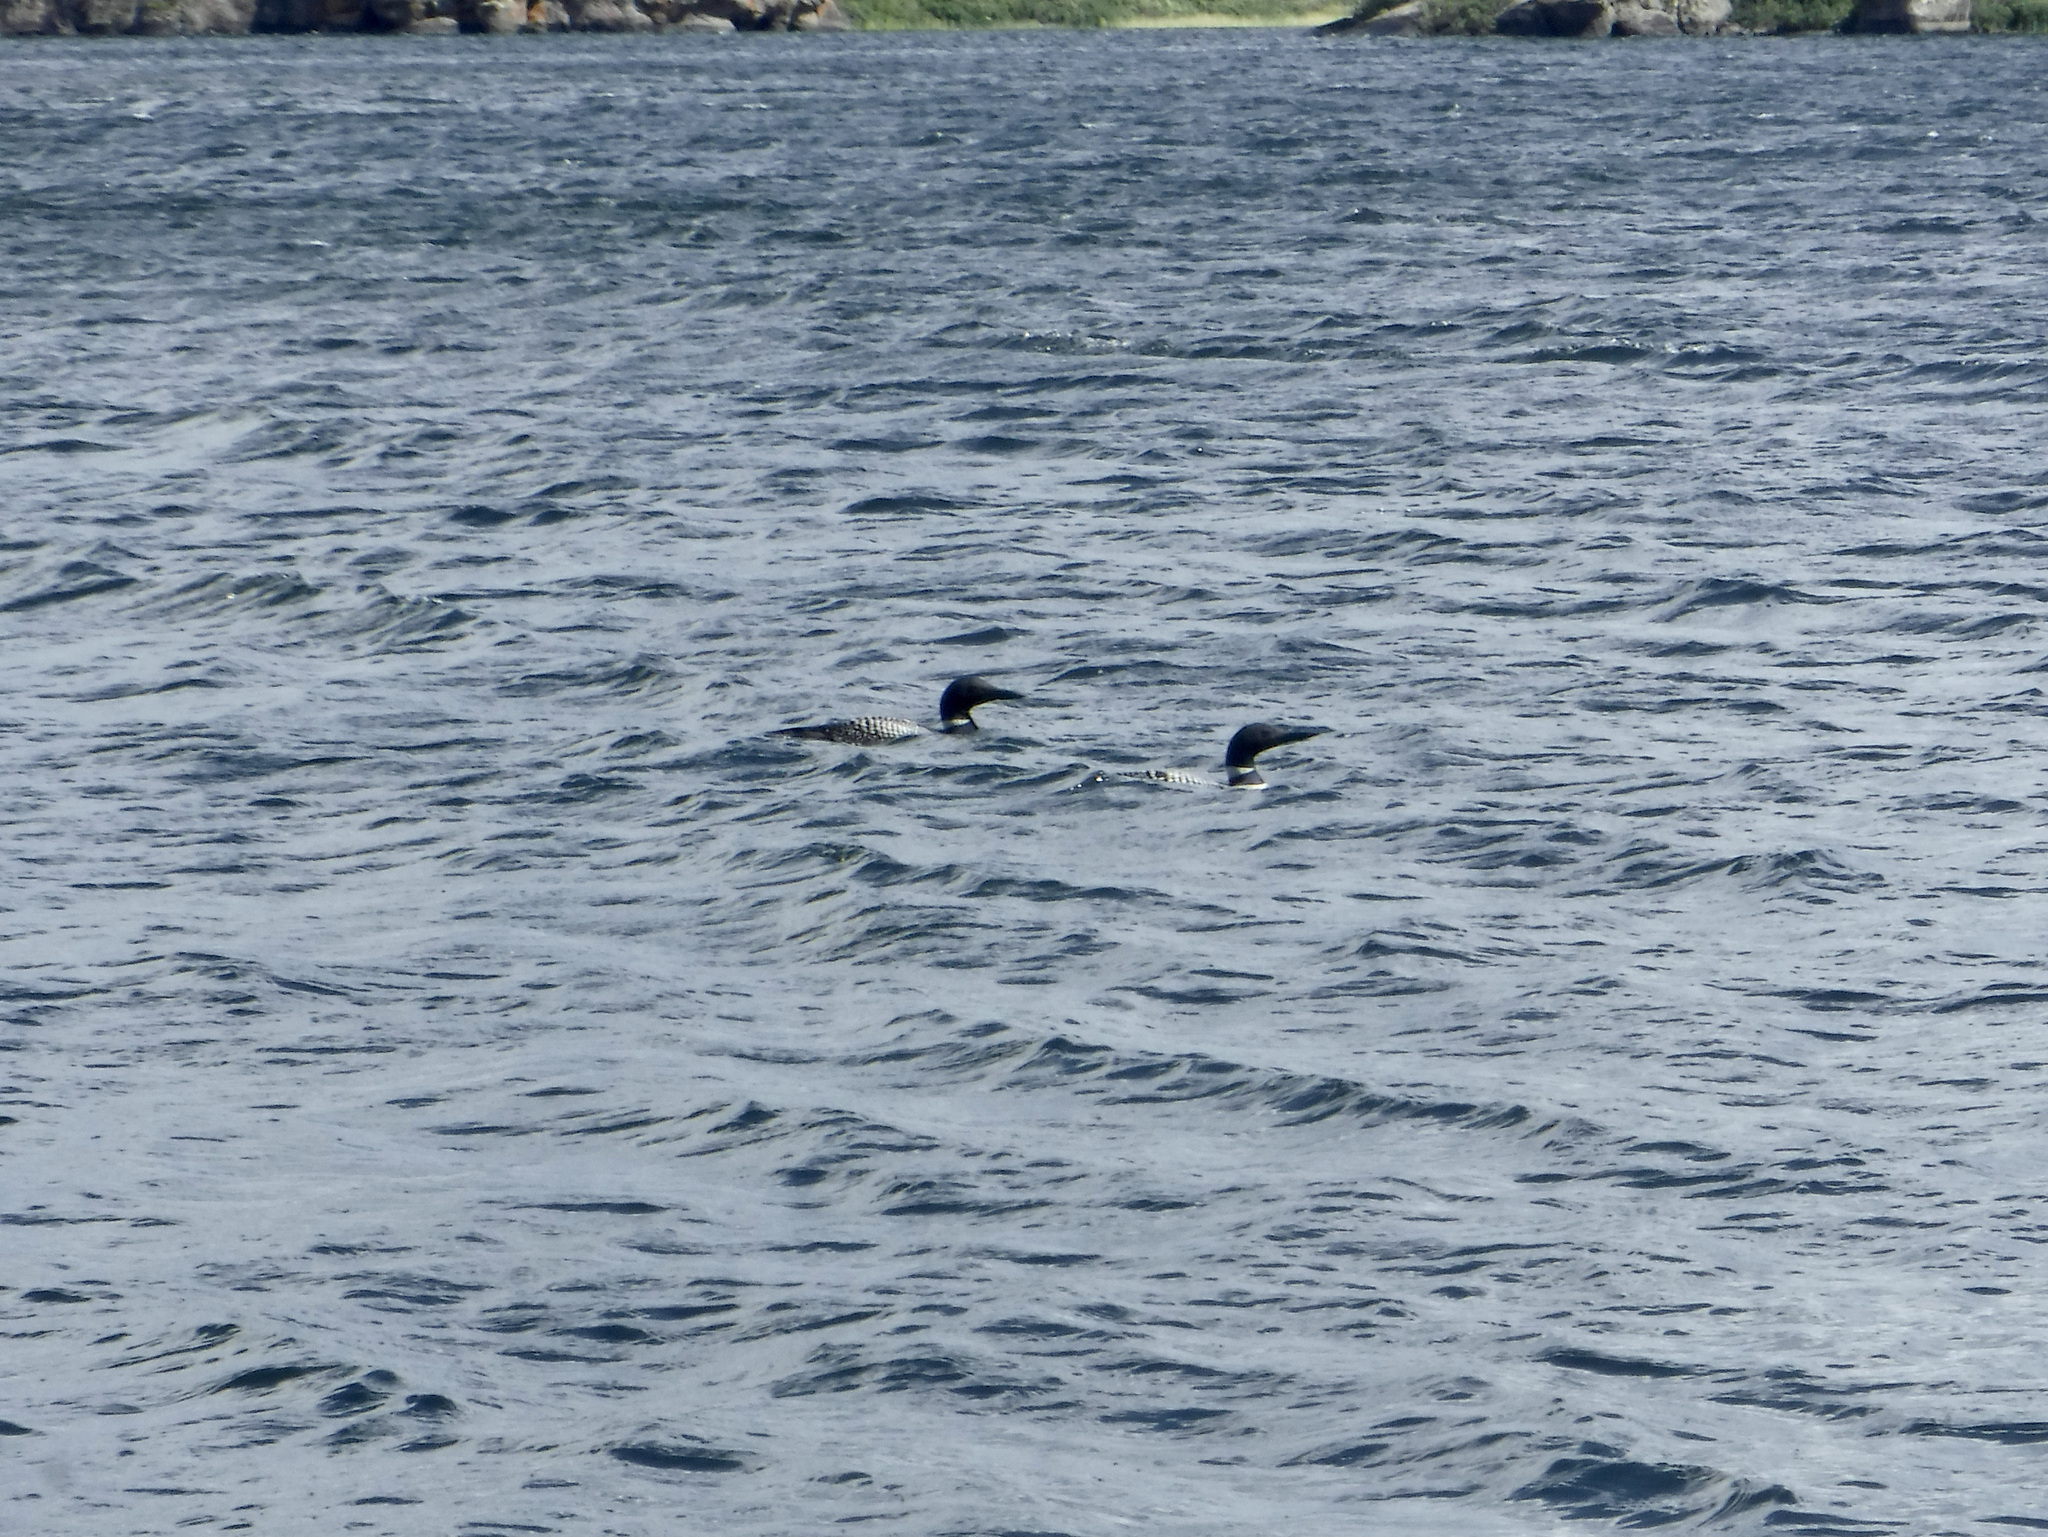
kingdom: Animalia
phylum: Chordata
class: Aves
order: Gaviiformes
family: Gaviidae
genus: Gavia
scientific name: Gavia immer
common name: Common loon
